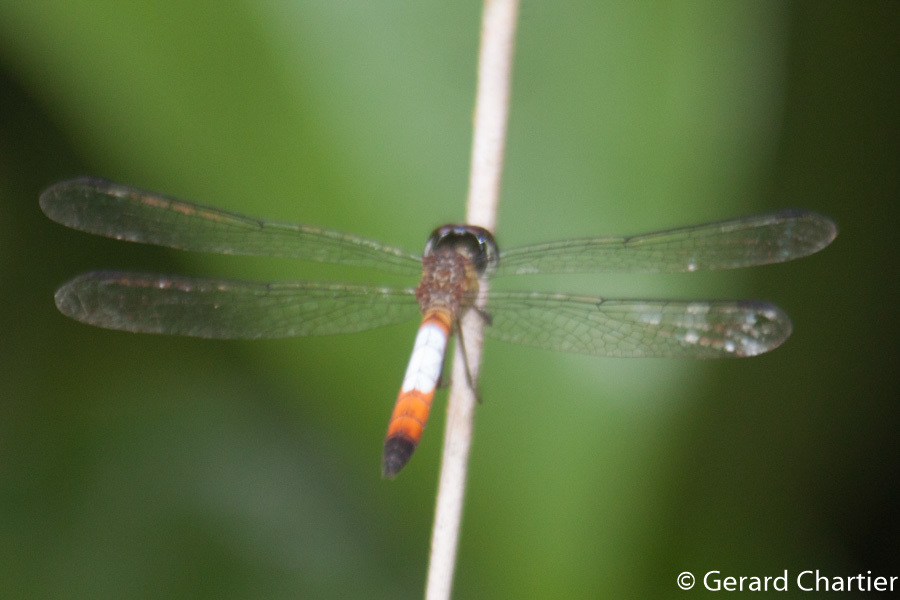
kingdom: Animalia
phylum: Arthropoda
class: Insecta
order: Odonata
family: Libellulidae
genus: Brachygonia
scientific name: Brachygonia oculata
